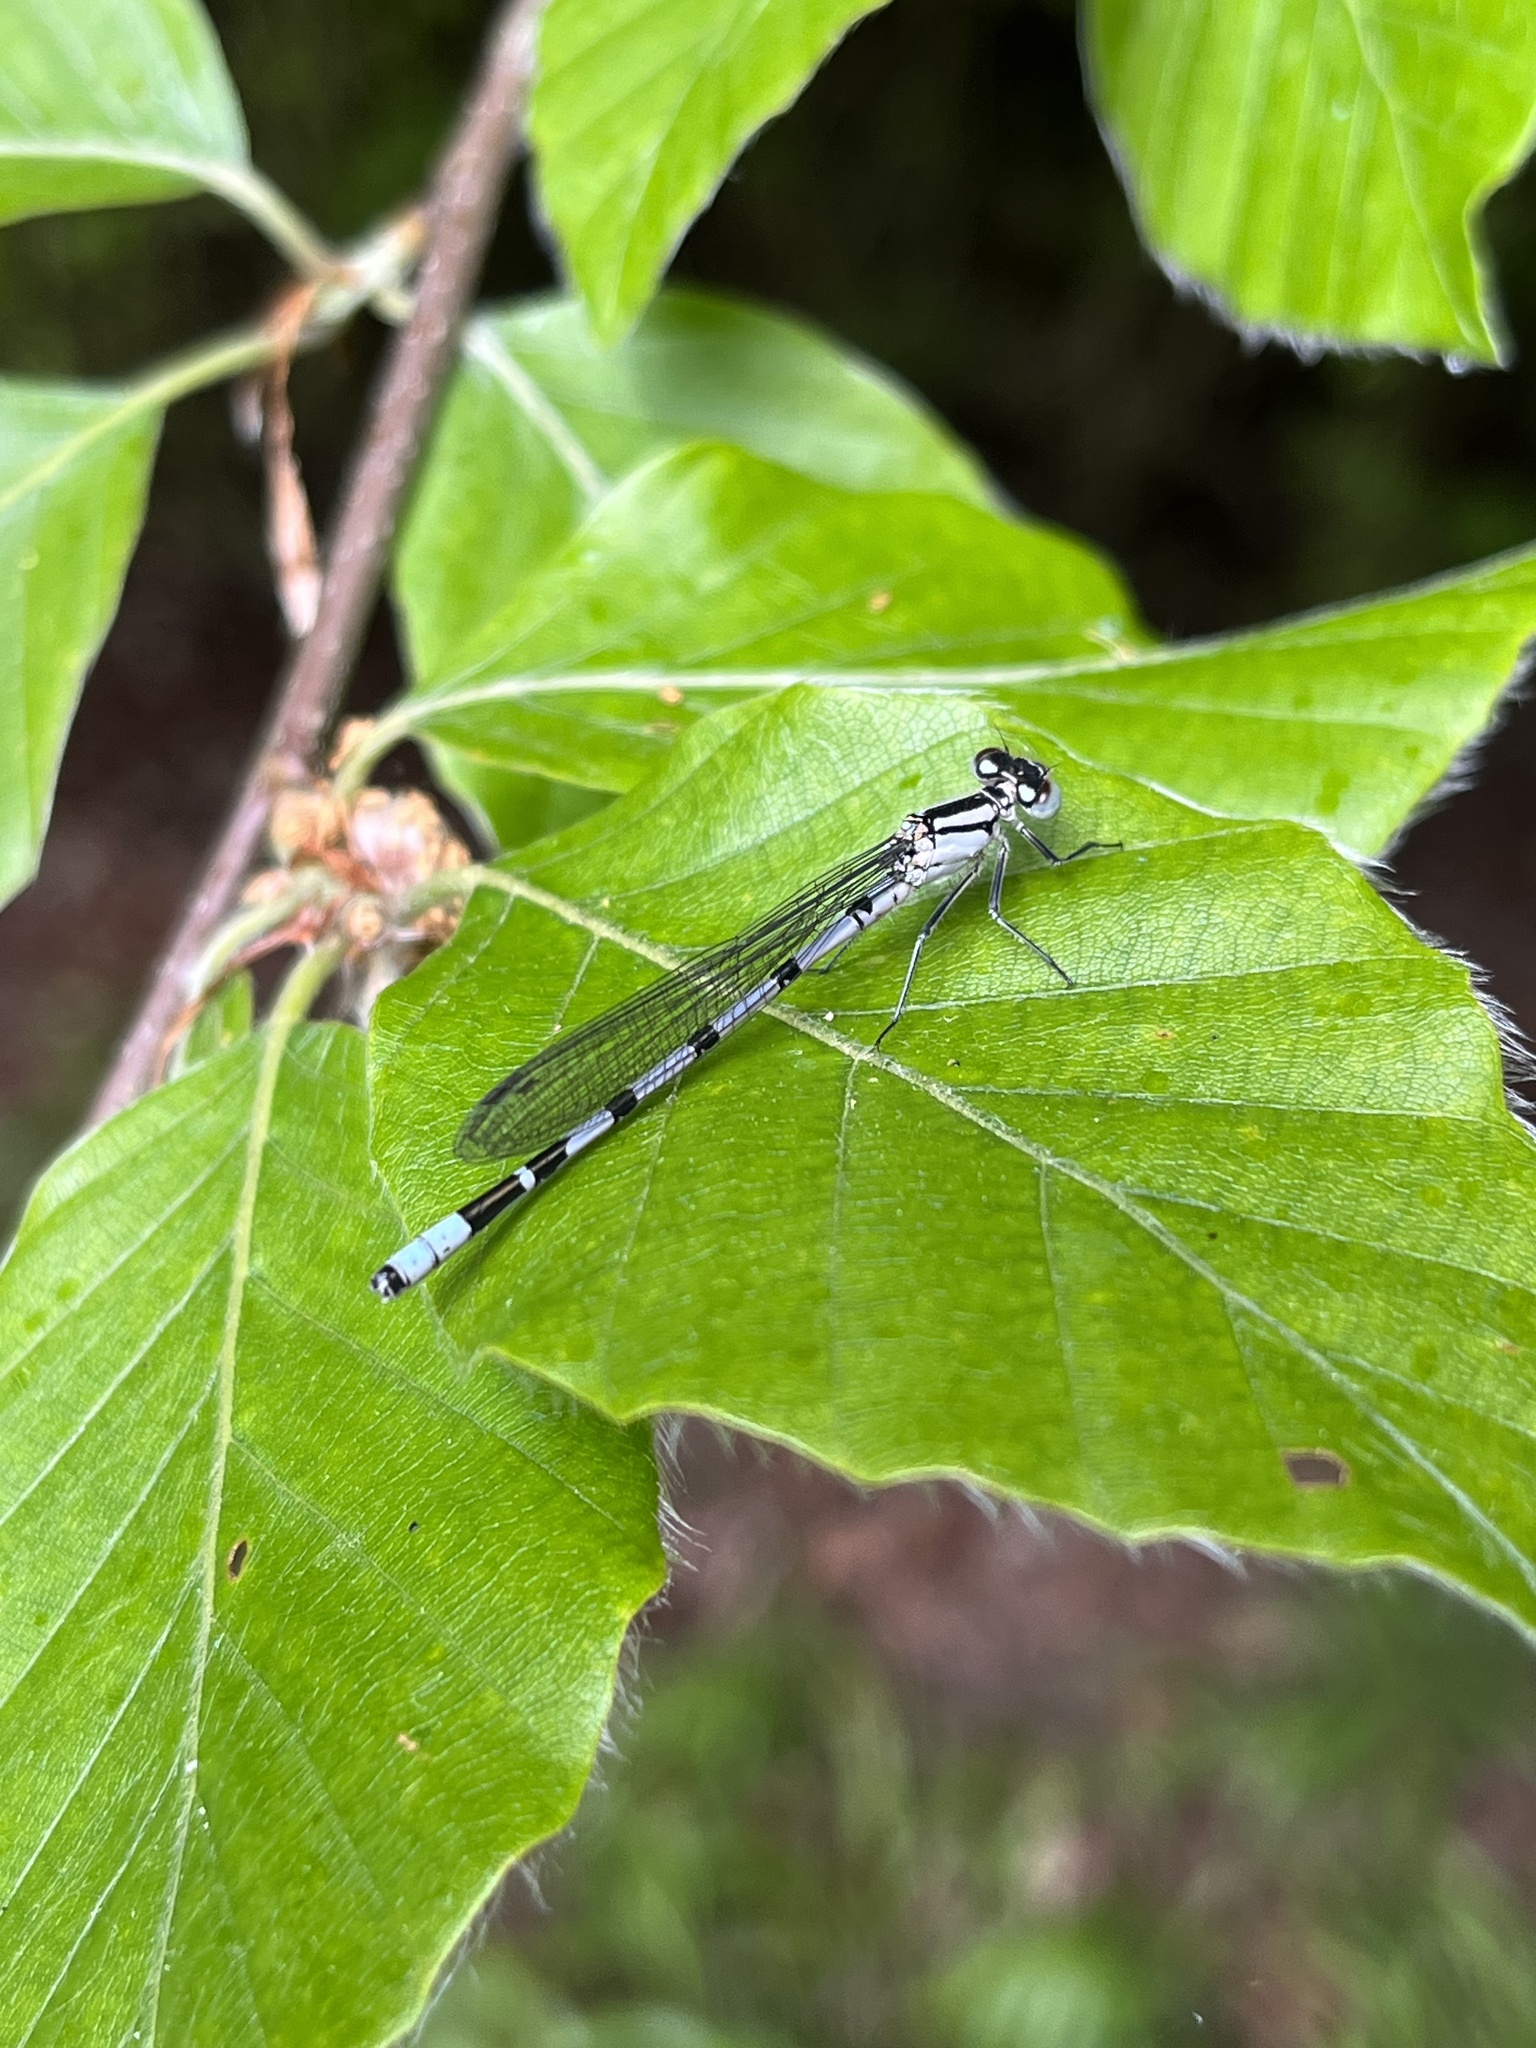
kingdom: Animalia
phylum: Arthropoda
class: Insecta
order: Odonata
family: Coenagrionidae
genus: Enallagma
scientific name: Enallagma cyathigerum
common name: Common blue damselfly
